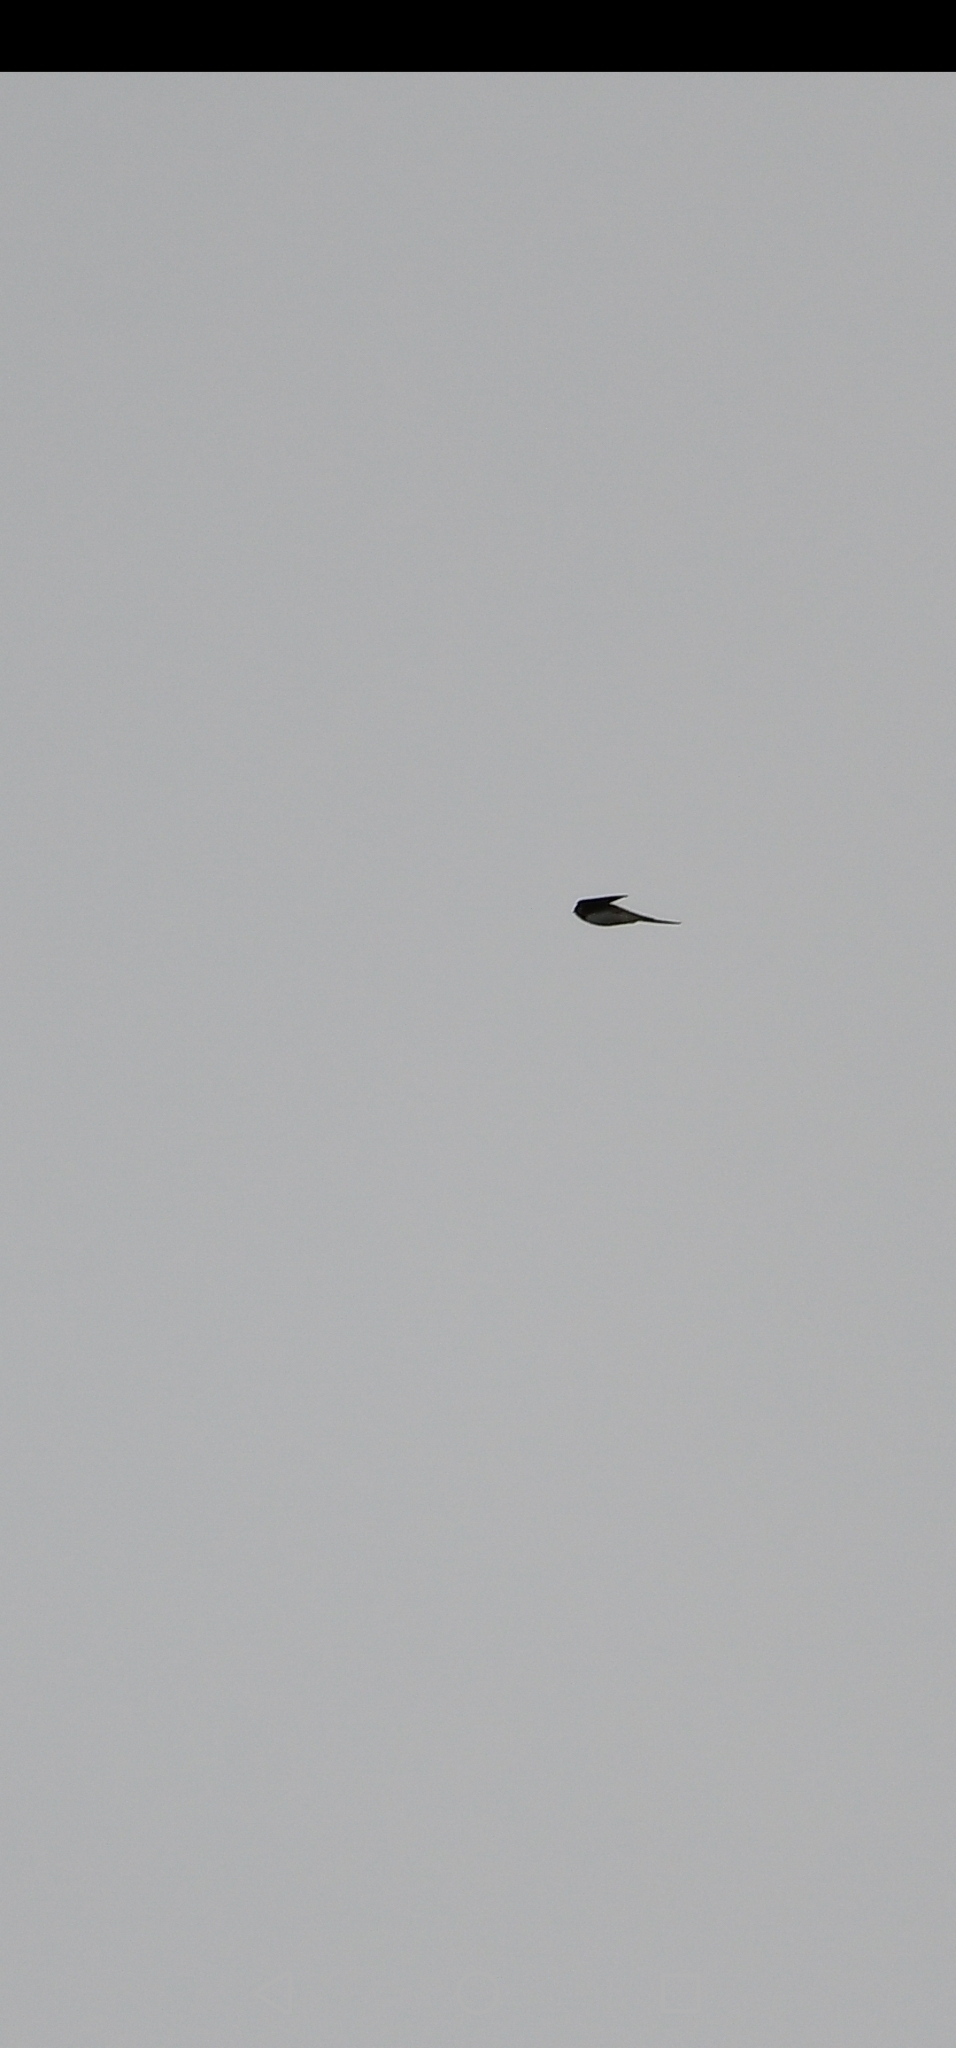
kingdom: Animalia
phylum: Chordata
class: Aves
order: Passeriformes
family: Hirundinidae
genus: Riparia
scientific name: Riparia riparia
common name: Sand martin
